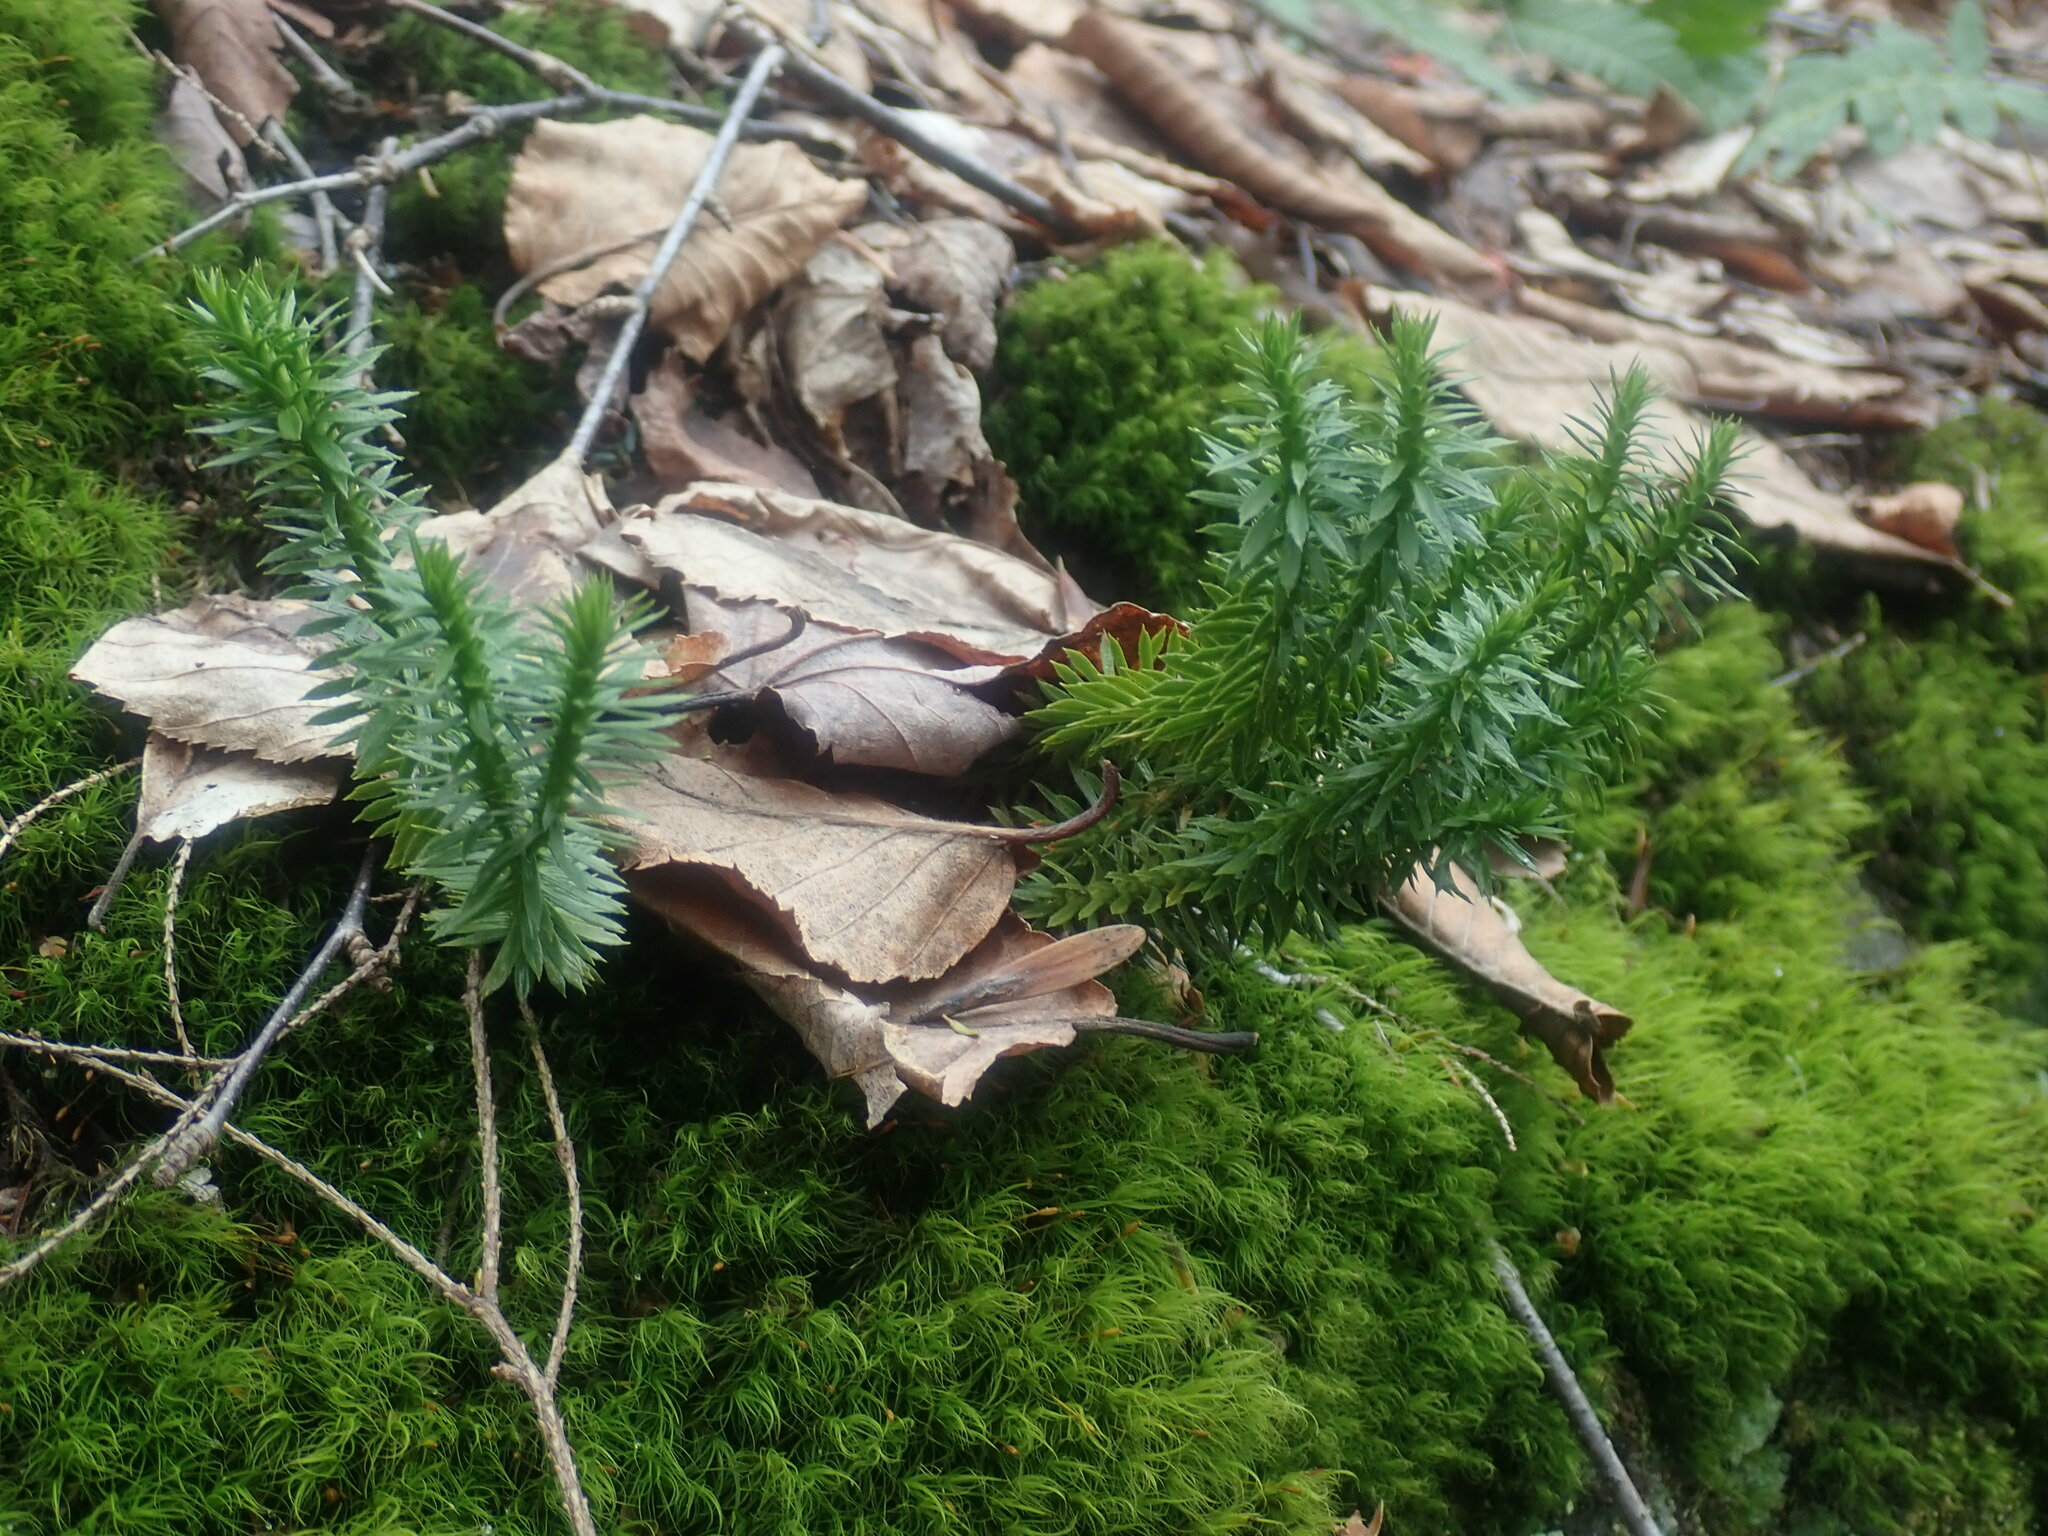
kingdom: Plantae
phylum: Tracheophyta
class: Lycopodiopsida
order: Lycopodiales
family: Lycopodiaceae
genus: Huperzia
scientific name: Huperzia lucidula
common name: Shining clubmoss
